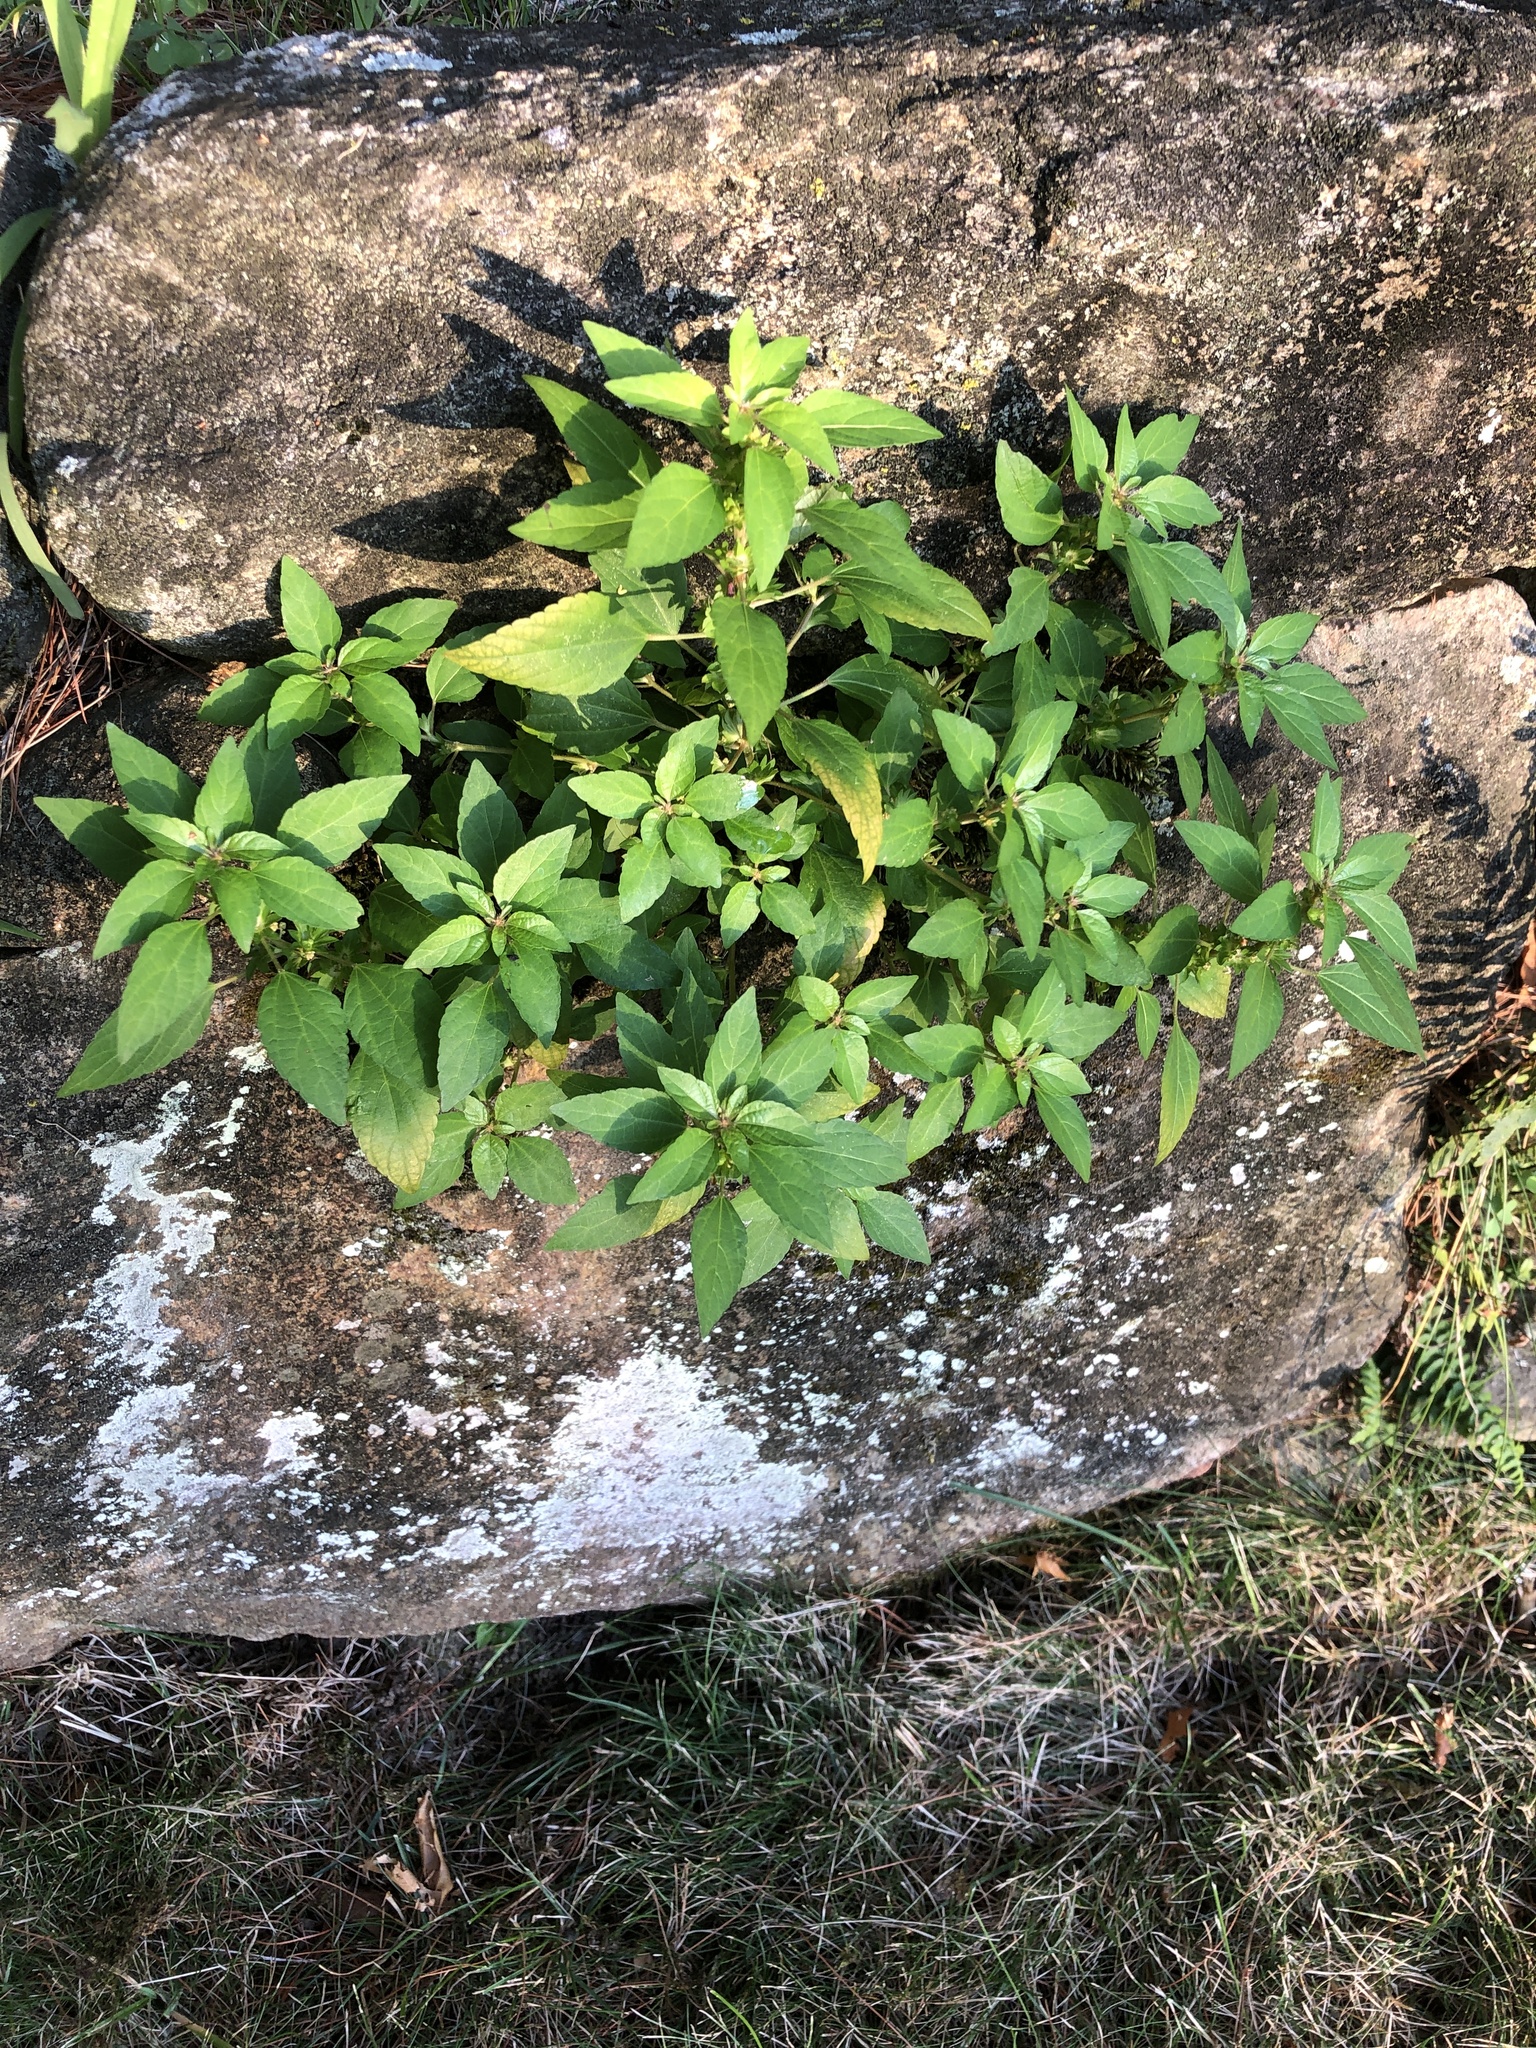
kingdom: Plantae
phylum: Tracheophyta
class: Magnoliopsida
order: Malpighiales
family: Euphorbiaceae
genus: Acalypha
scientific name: Acalypha rhomboidea
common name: Rhombic copperleaf
